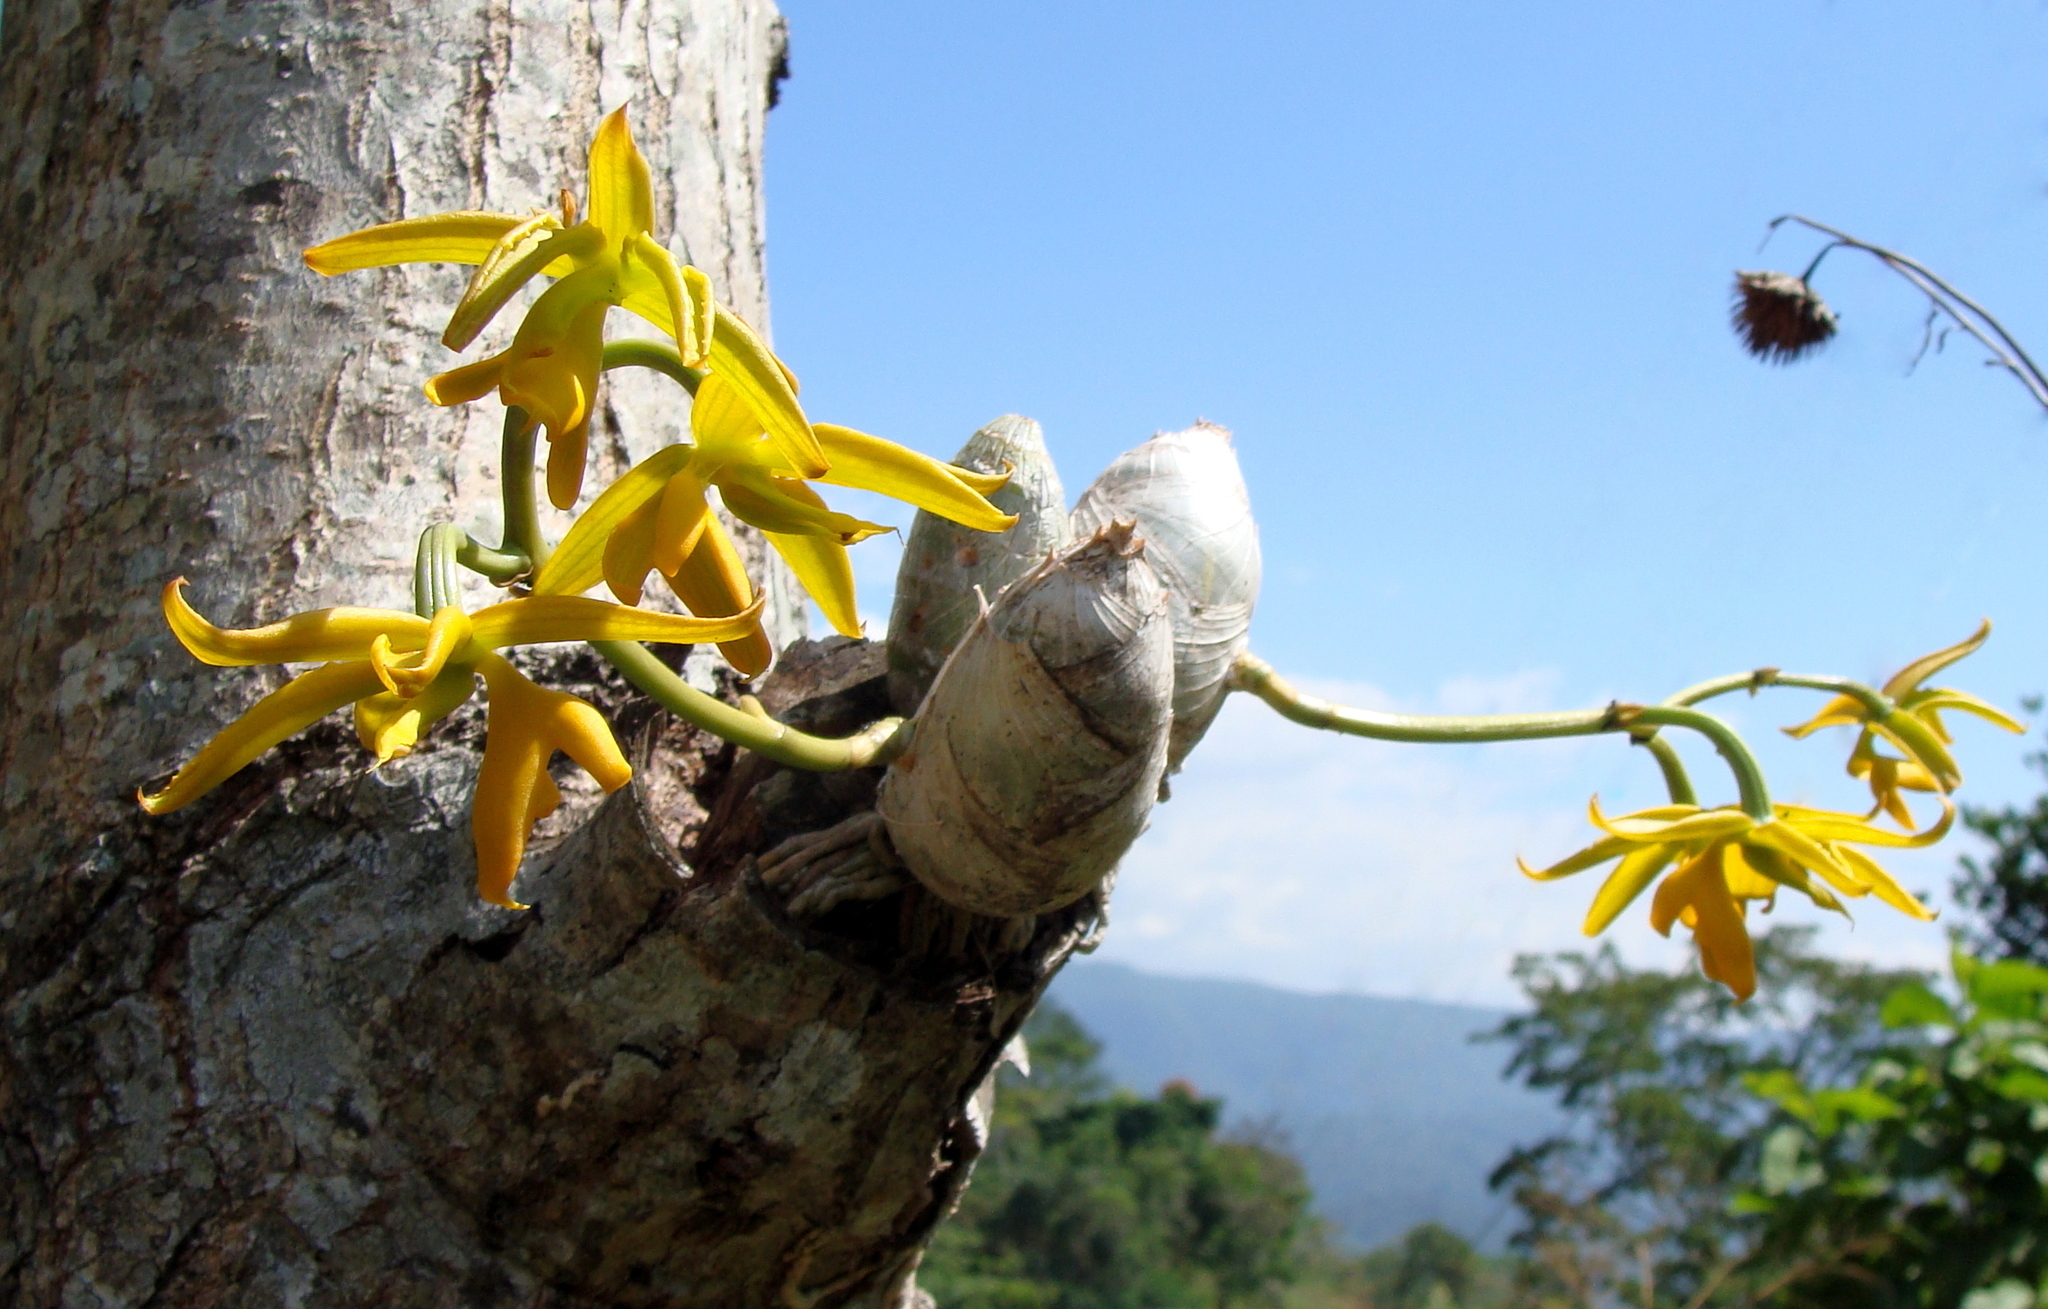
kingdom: Plantae
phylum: Tracheophyta
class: Liliopsida
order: Asparagales
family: Orchidaceae
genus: Mormodes
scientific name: Mormodes lineata
